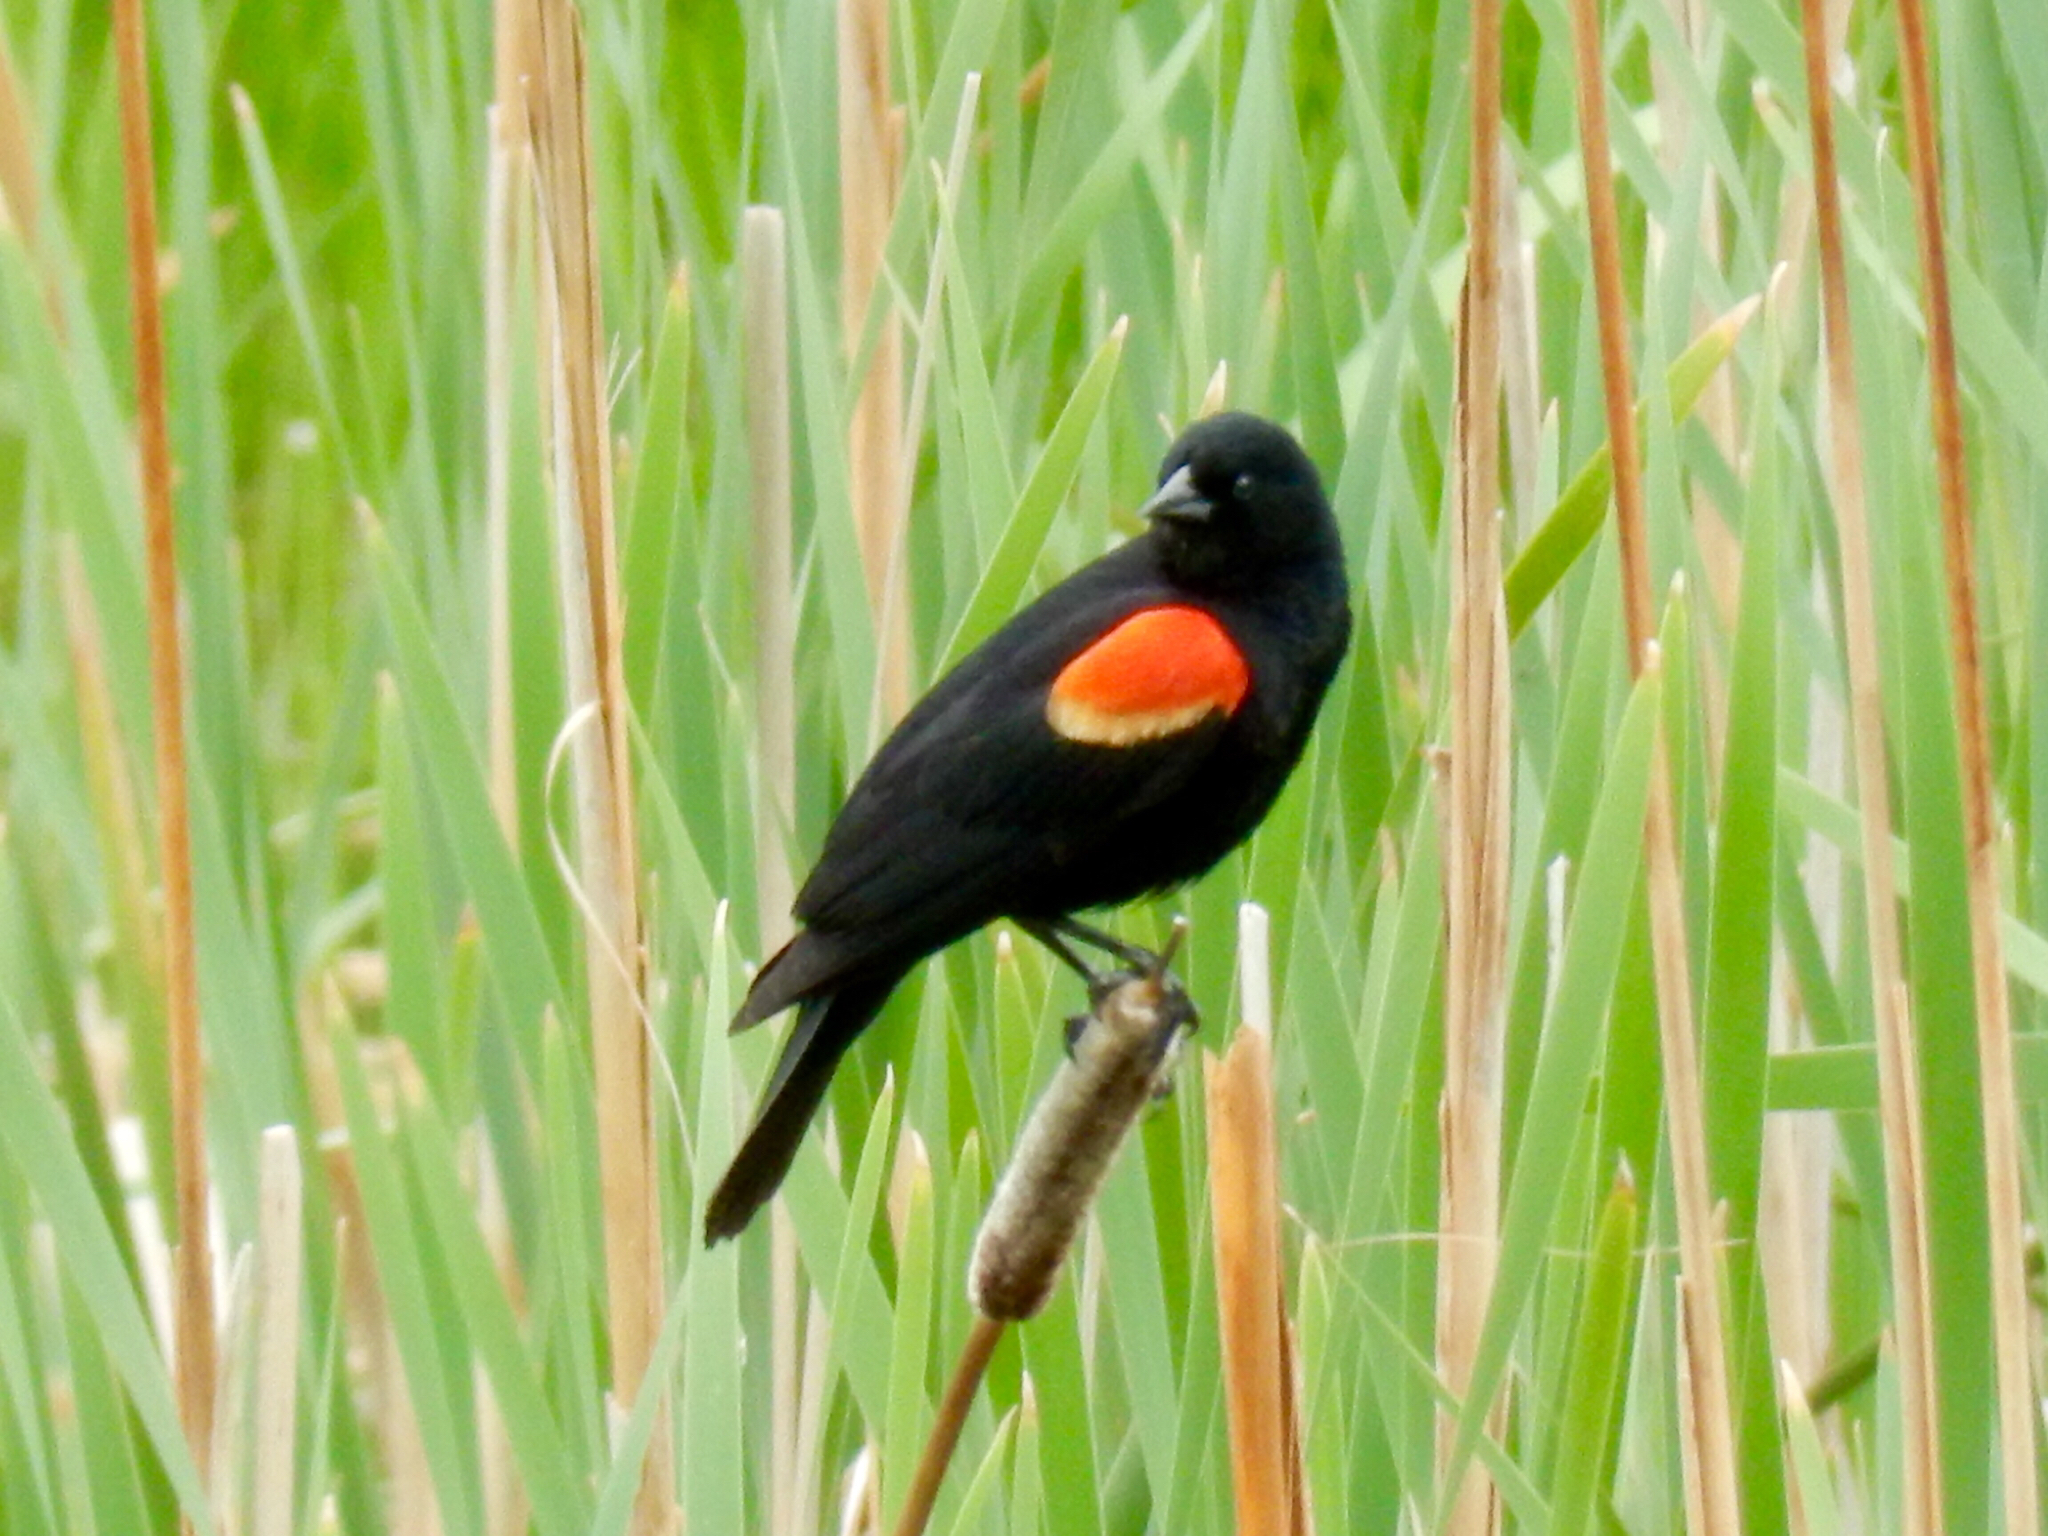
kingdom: Animalia
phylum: Chordata
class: Aves
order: Passeriformes
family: Icteridae
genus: Agelaius
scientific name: Agelaius phoeniceus
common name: Red-winged blackbird
